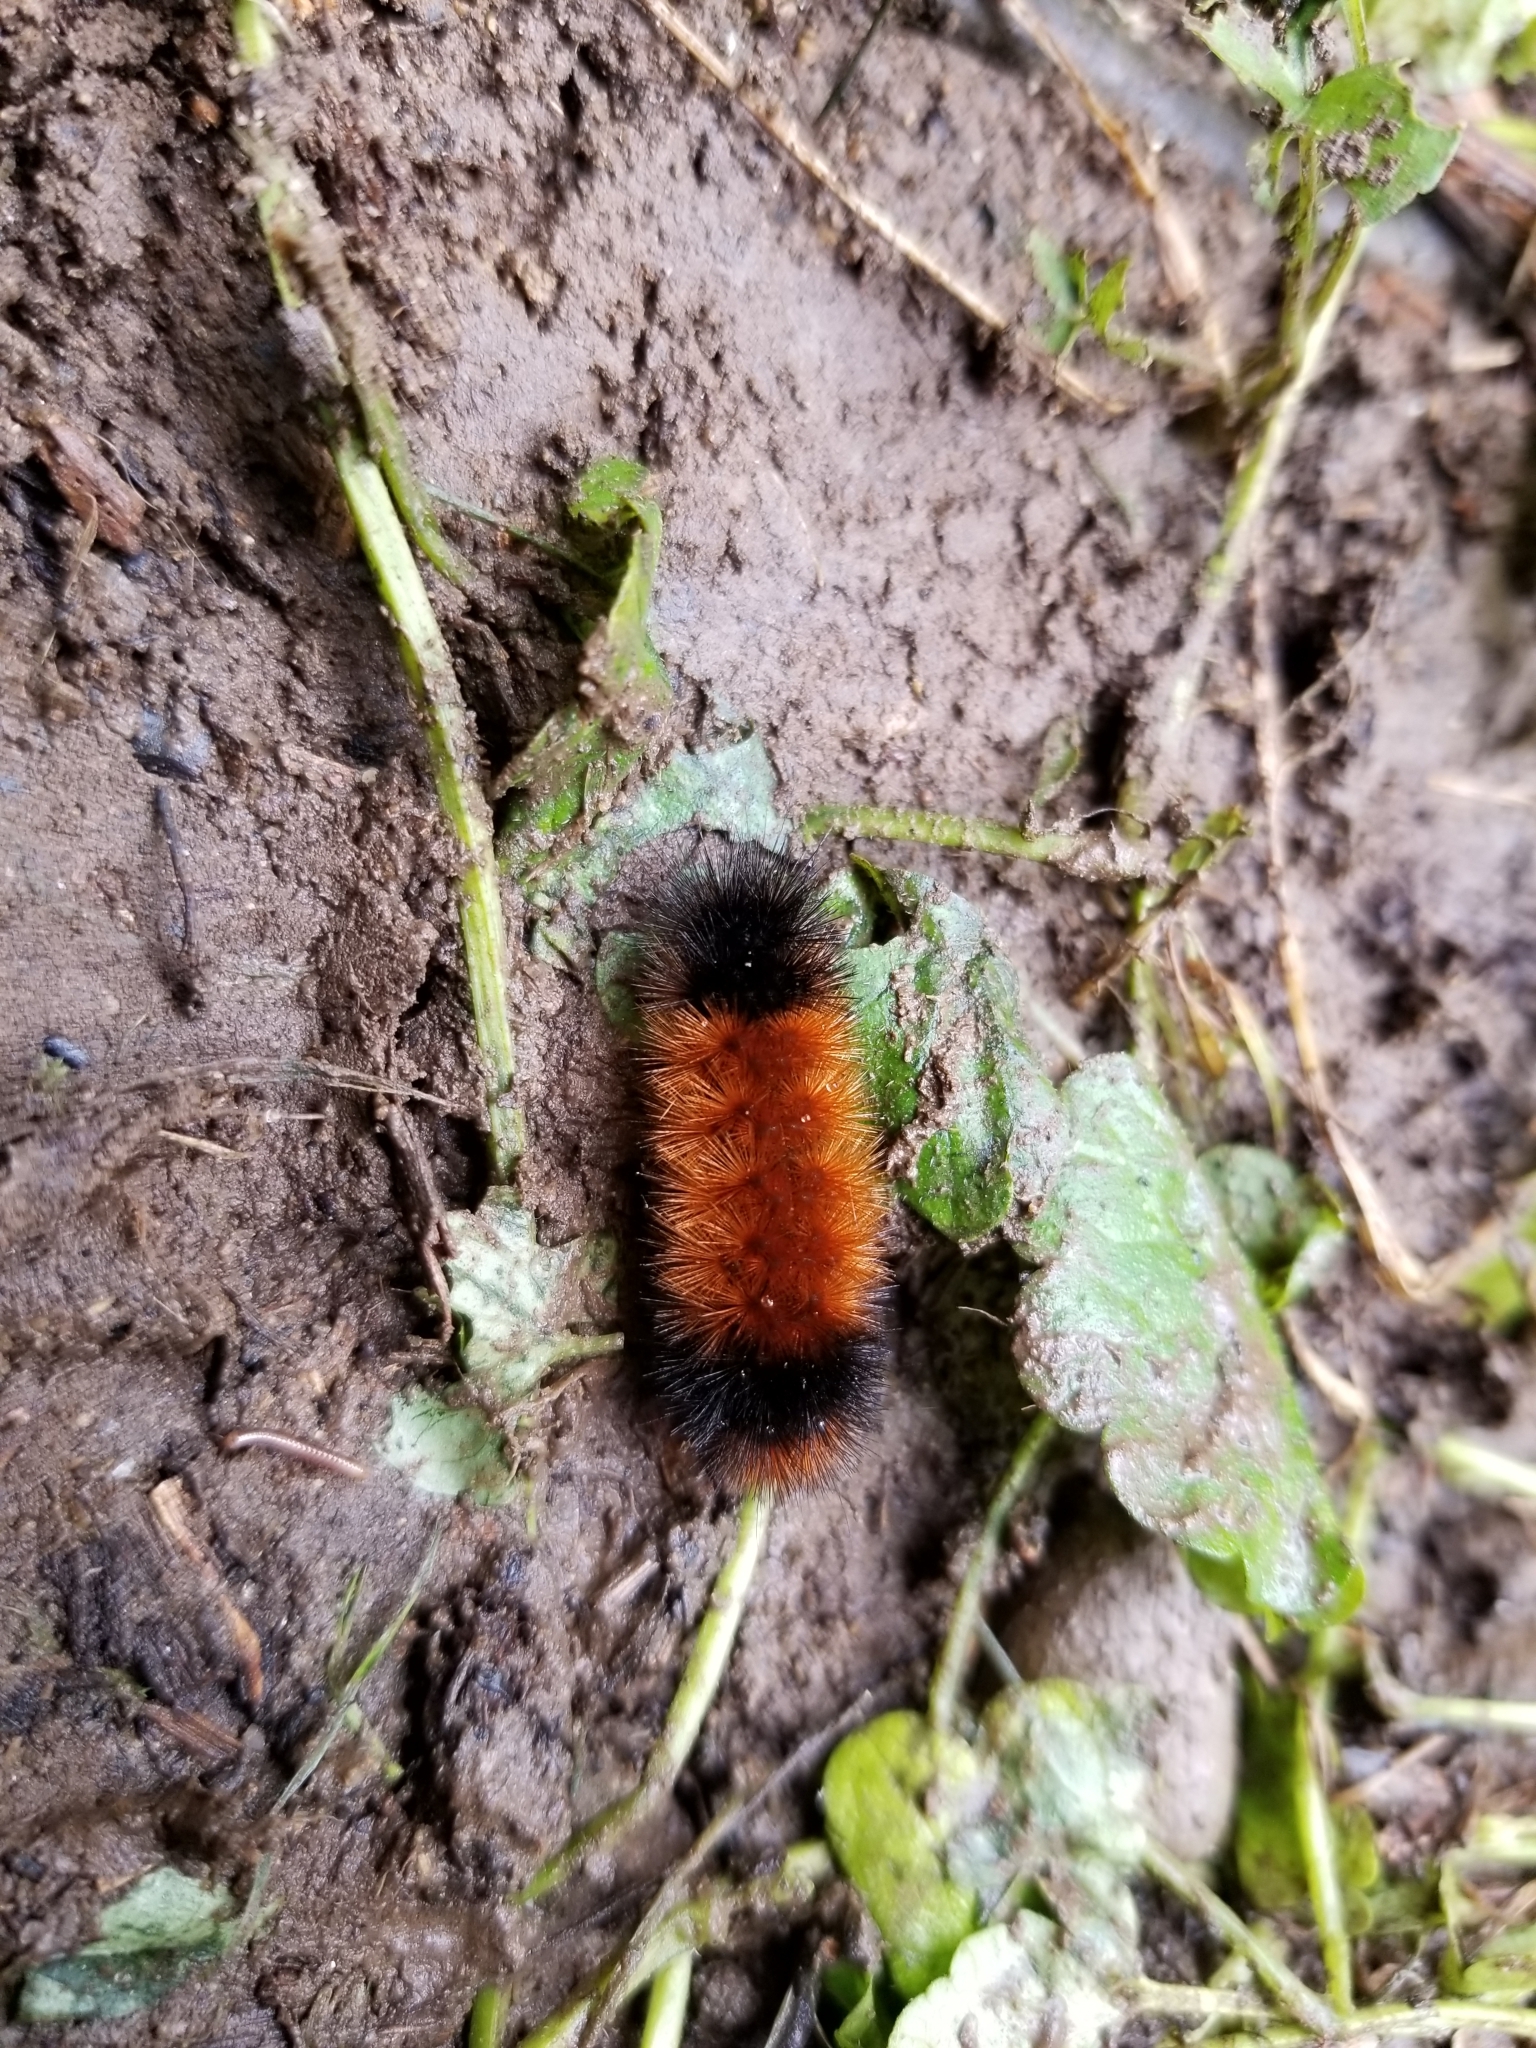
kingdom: Animalia
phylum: Arthropoda
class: Insecta
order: Lepidoptera
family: Erebidae
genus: Pyrrharctia
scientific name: Pyrrharctia isabella
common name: Isabella tiger moth
